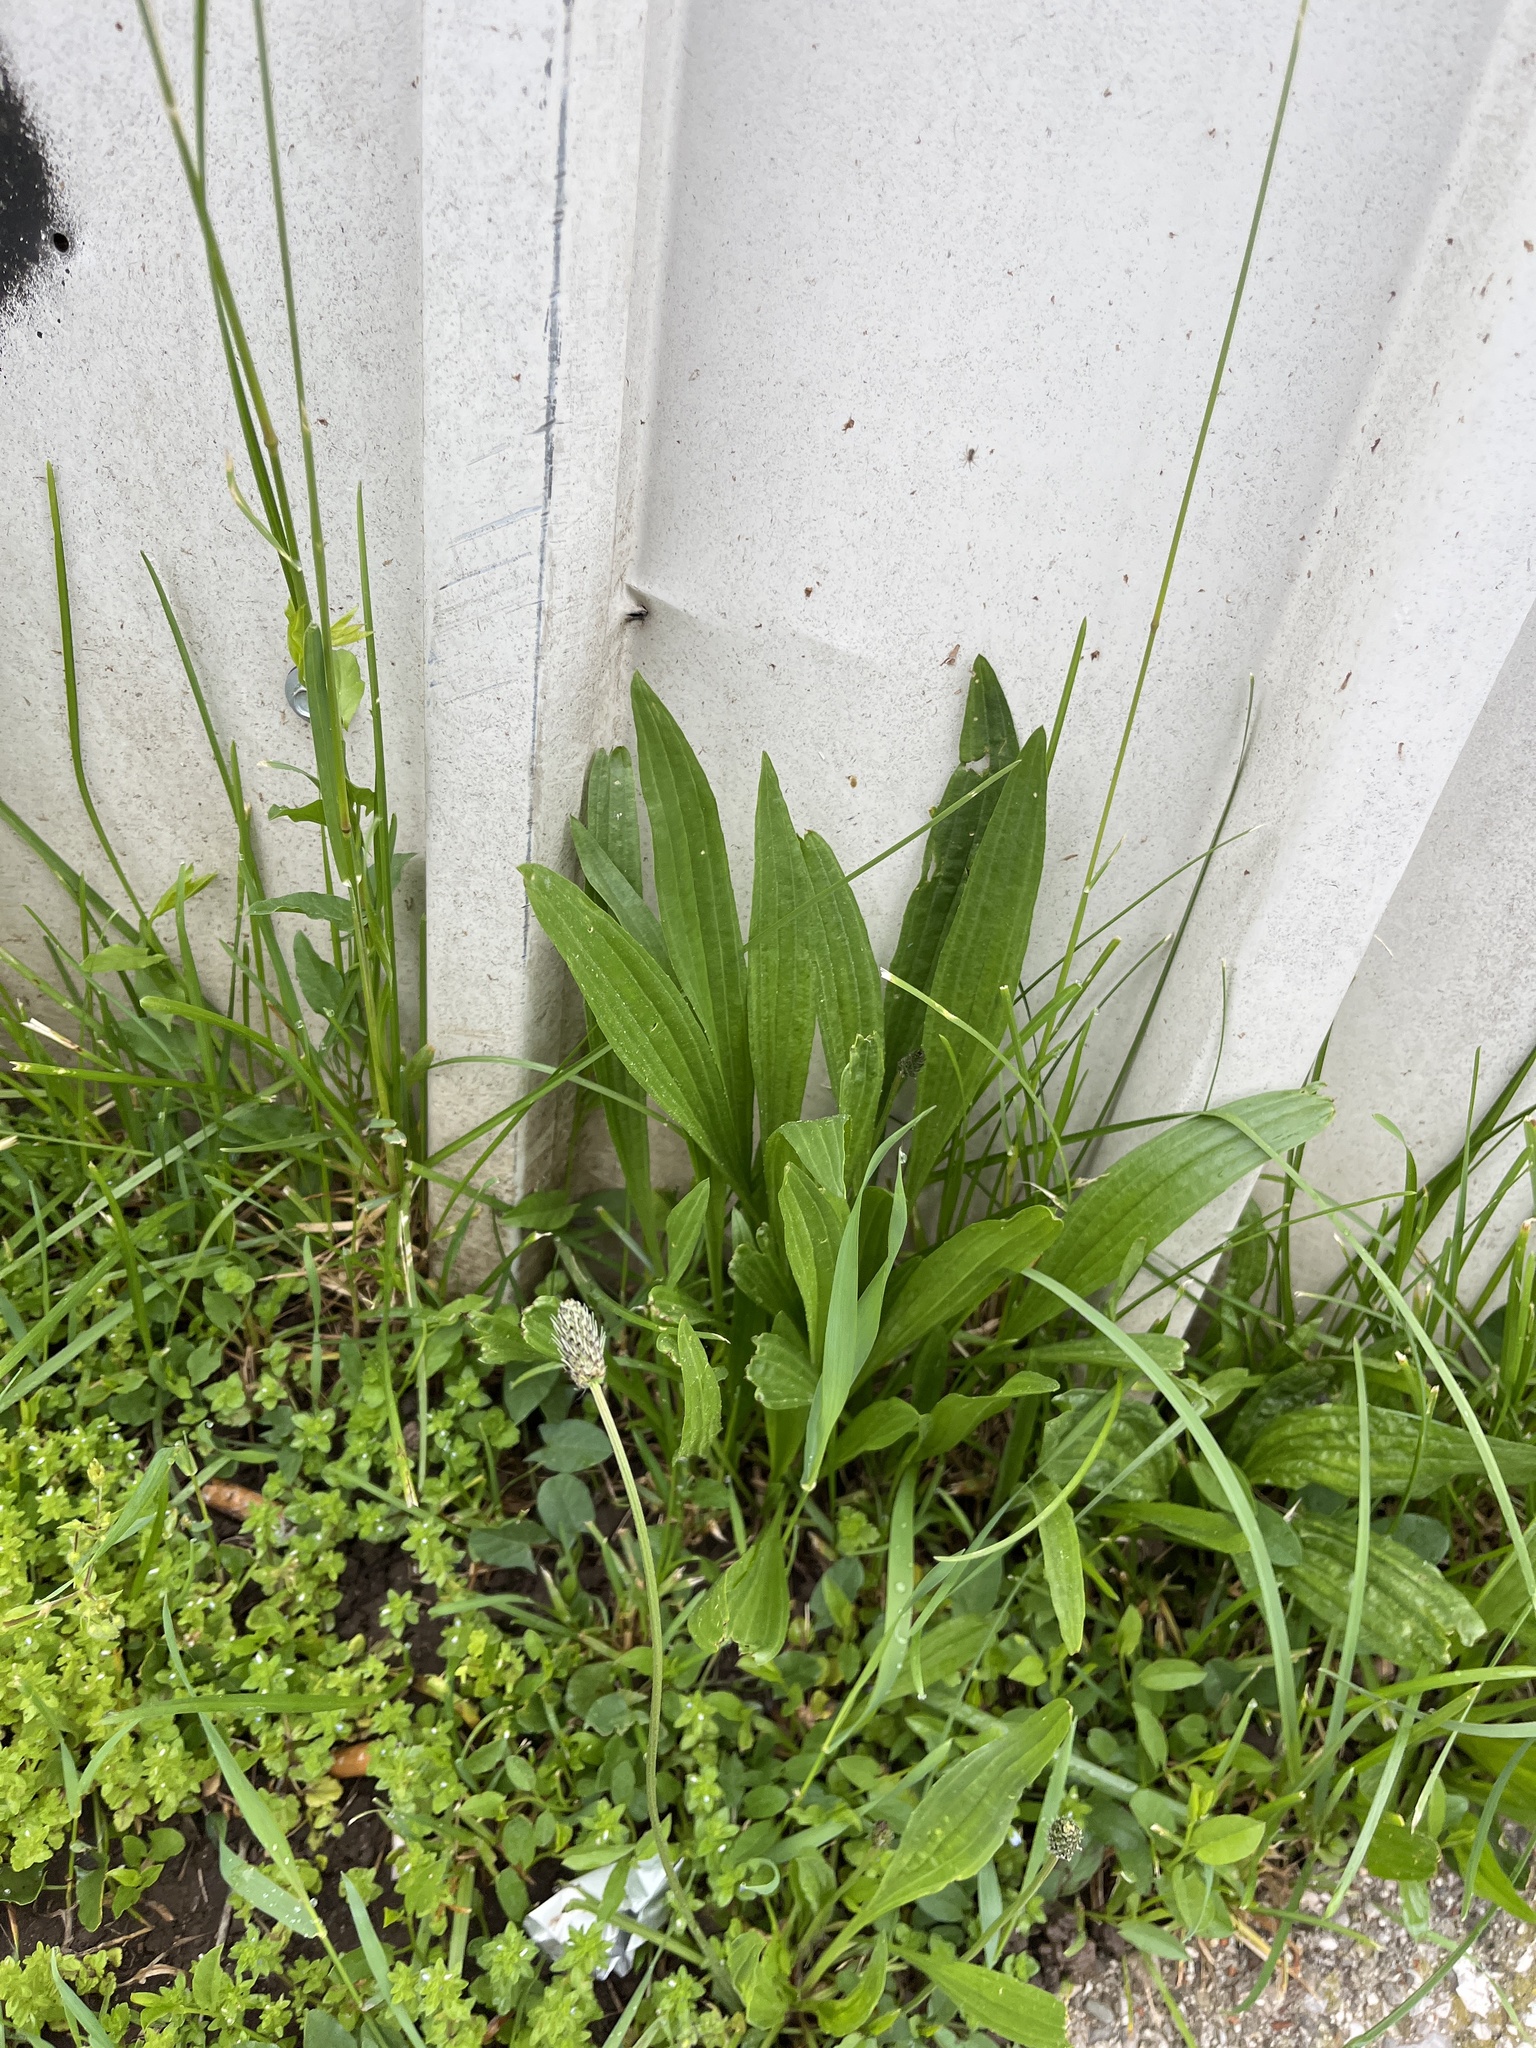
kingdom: Plantae
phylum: Tracheophyta
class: Magnoliopsida
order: Lamiales
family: Plantaginaceae
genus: Plantago
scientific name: Plantago lanceolata
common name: Ribwort plantain
